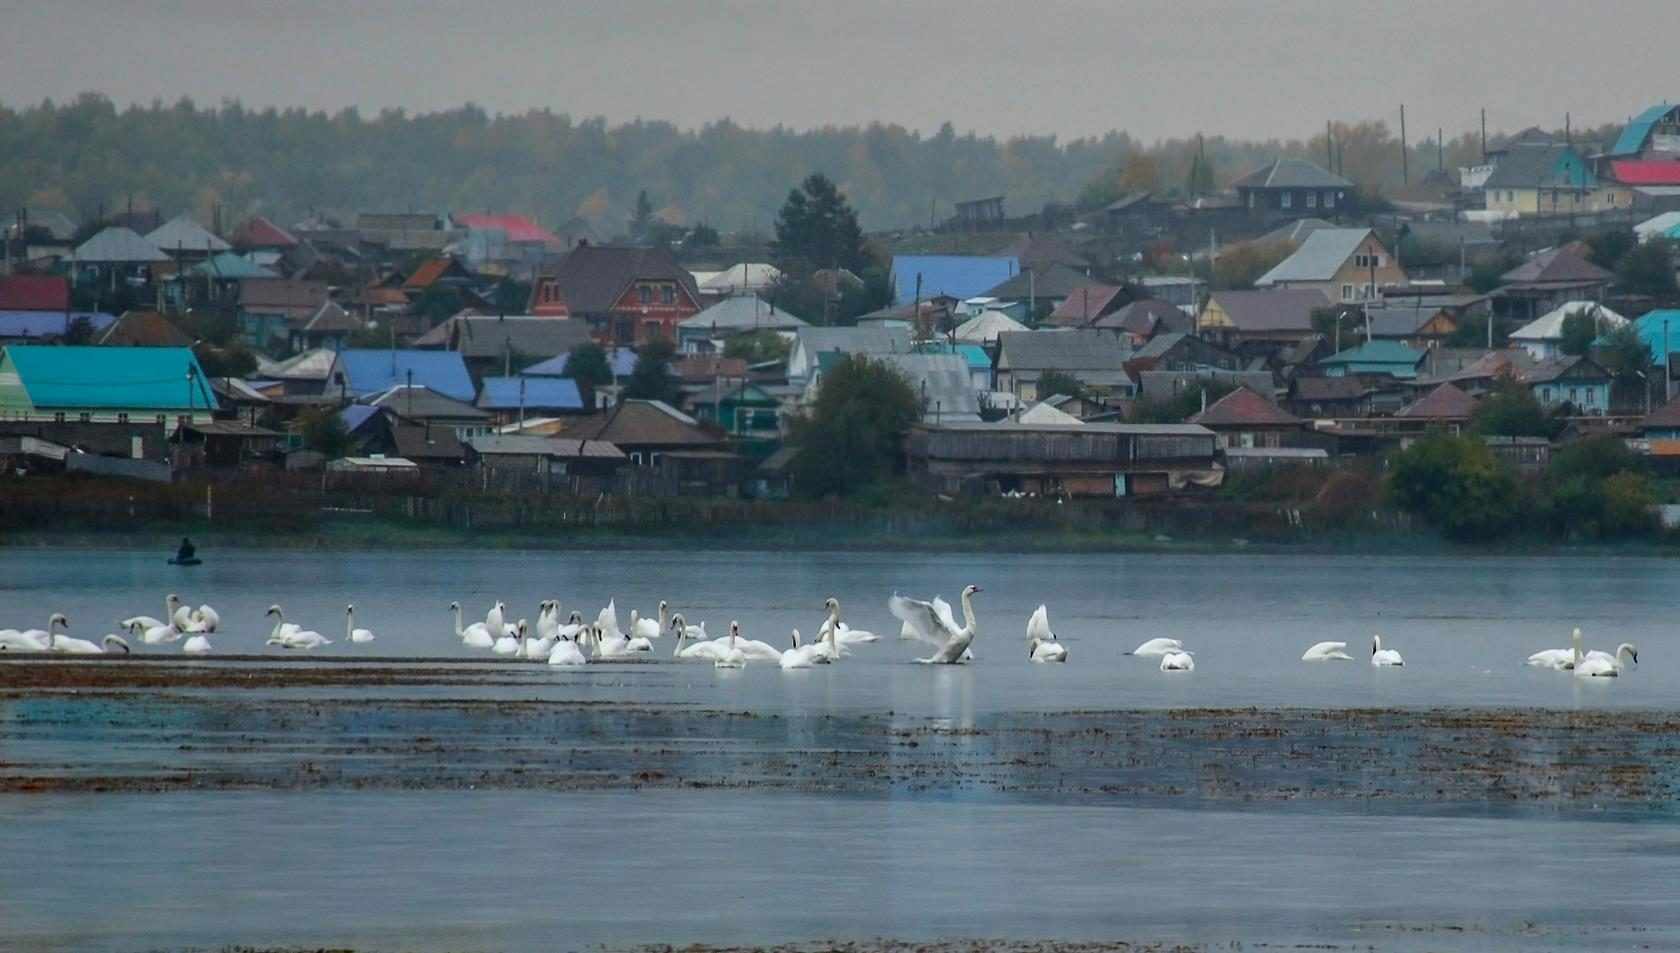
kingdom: Animalia
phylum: Chordata
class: Aves
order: Anseriformes
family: Anatidae
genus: Cygnus
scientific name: Cygnus olor
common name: Mute swan
